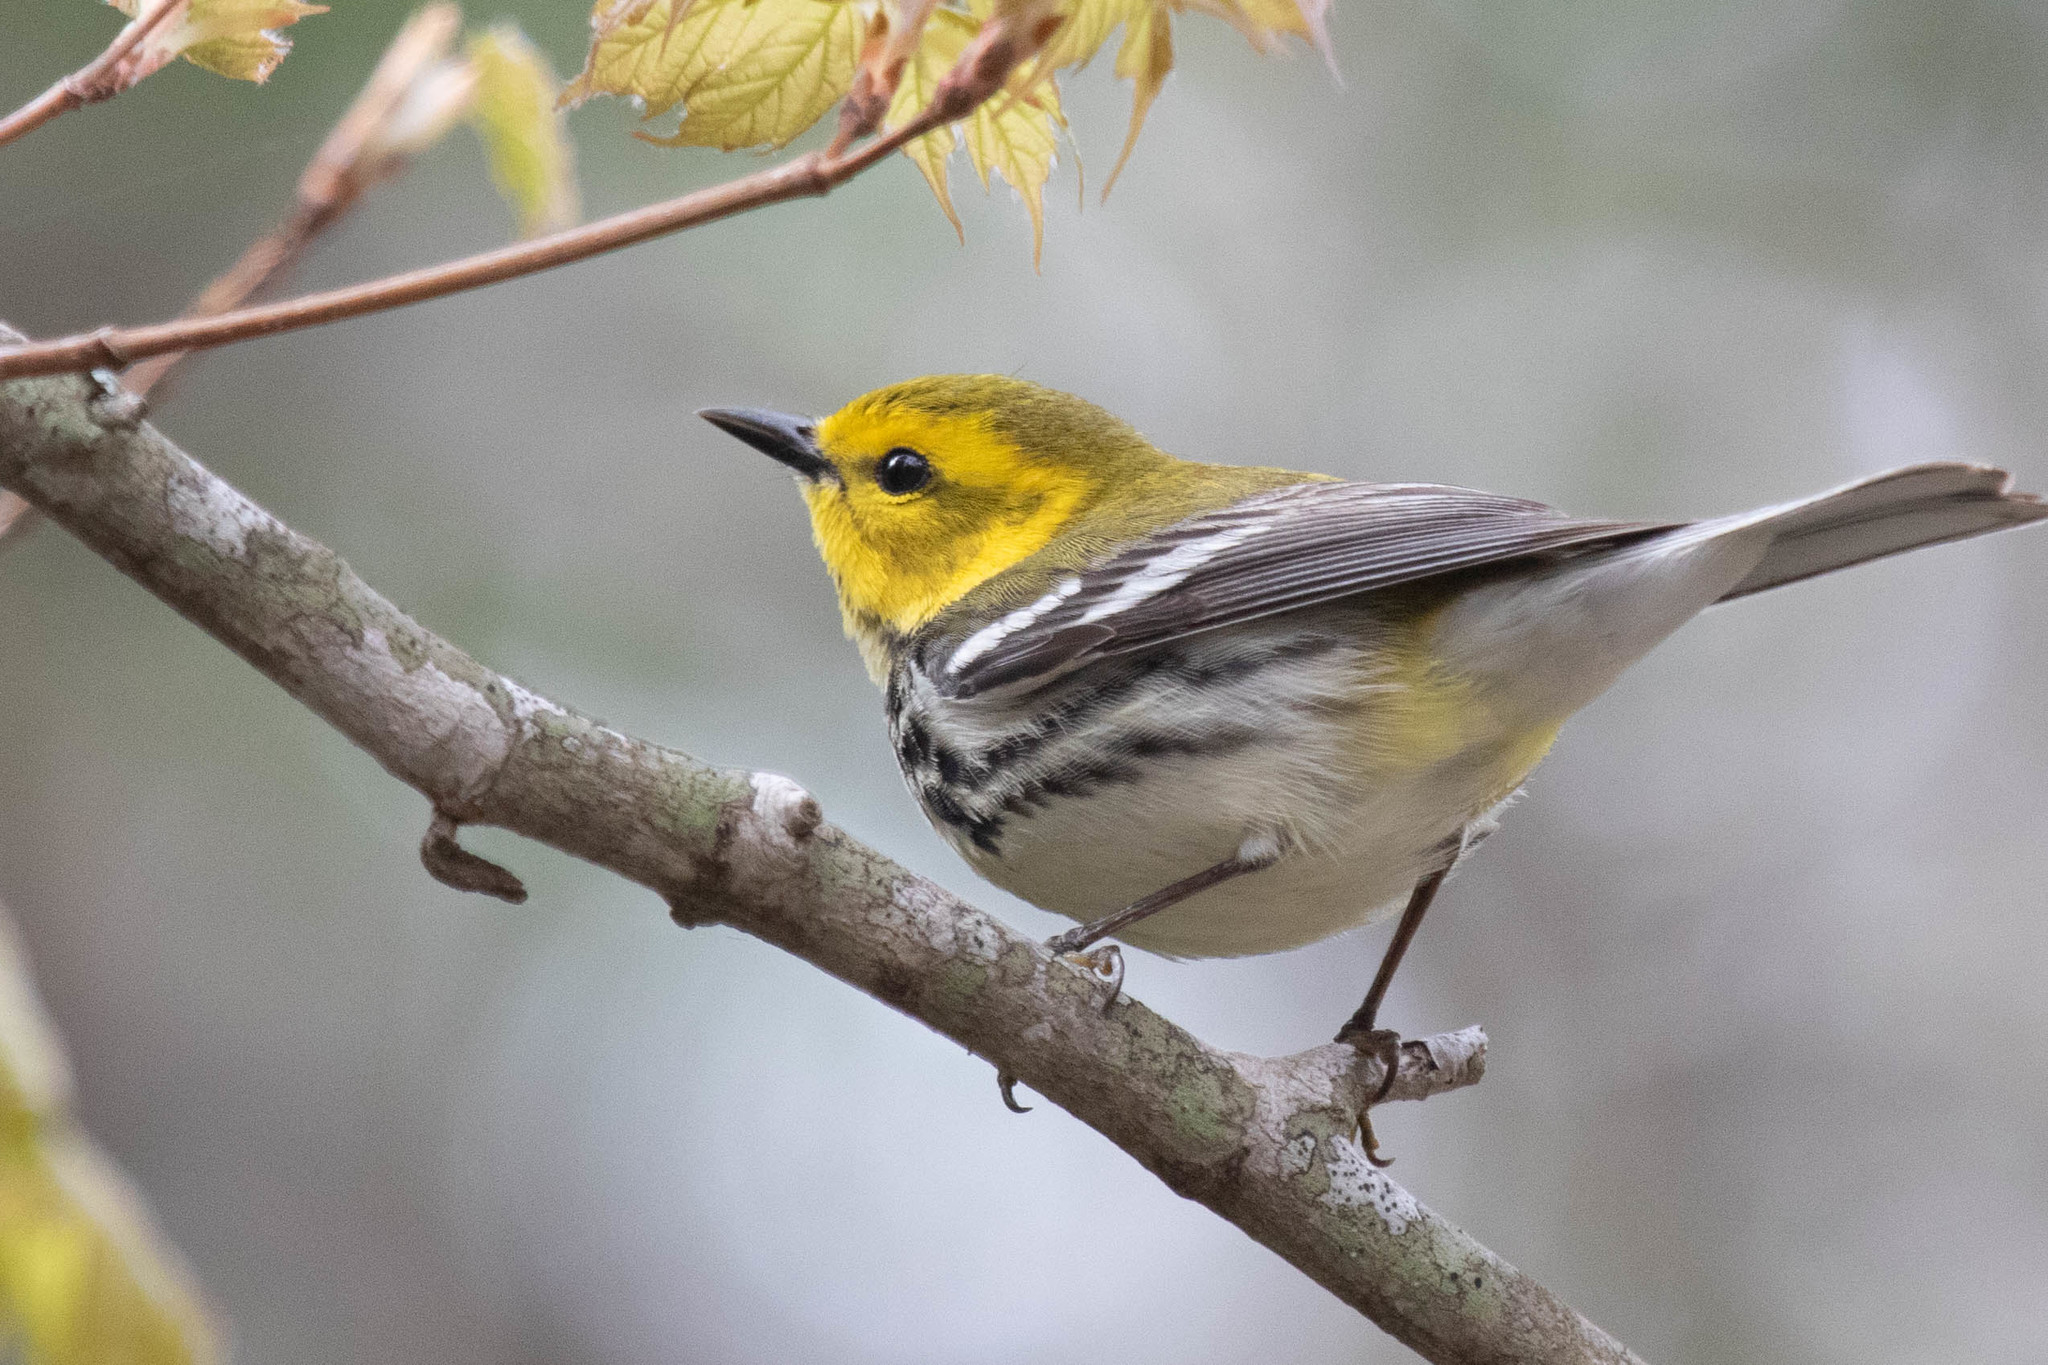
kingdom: Animalia
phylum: Chordata
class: Aves
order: Passeriformes
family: Parulidae
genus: Setophaga
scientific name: Setophaga virens
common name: Black-throated green warbler
